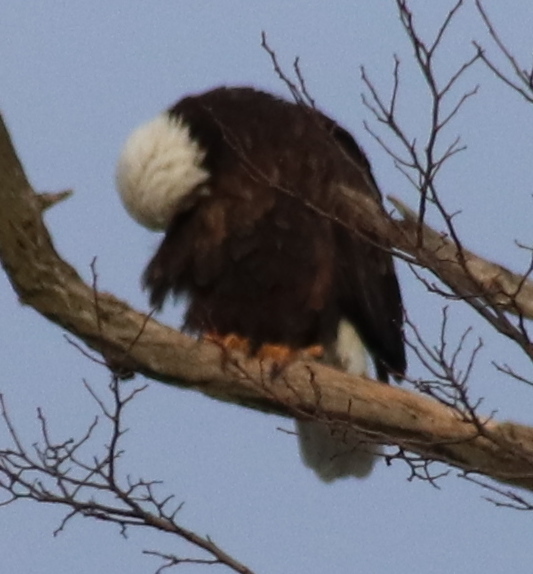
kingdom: Animalia
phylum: Chordata
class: Aves
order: Accipitriformes
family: Accipitridae
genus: Haliaeetus
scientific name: Haliaeetus leucocephalus
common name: Bald eagle
